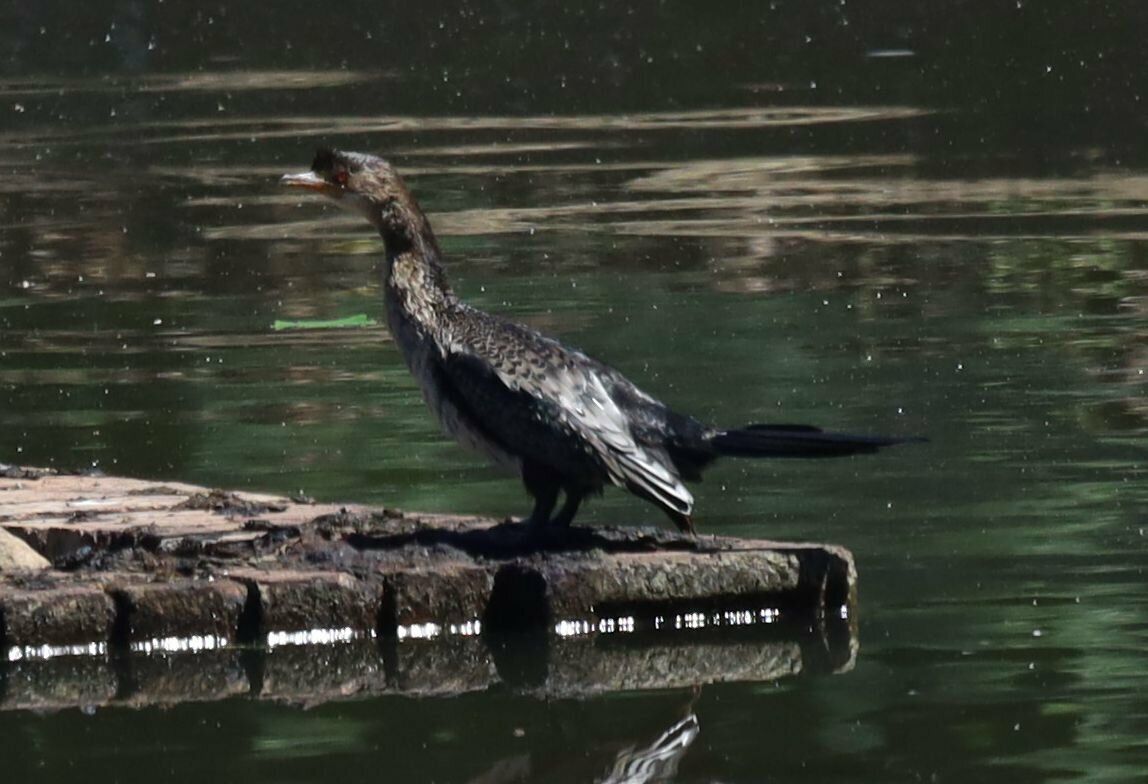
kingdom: Animalia
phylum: Chordata
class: Aves
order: Suliformes
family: Phalacrocoracidae
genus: Microcarbo
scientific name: Microcarbo africanus
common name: Long-tailed cormorant
